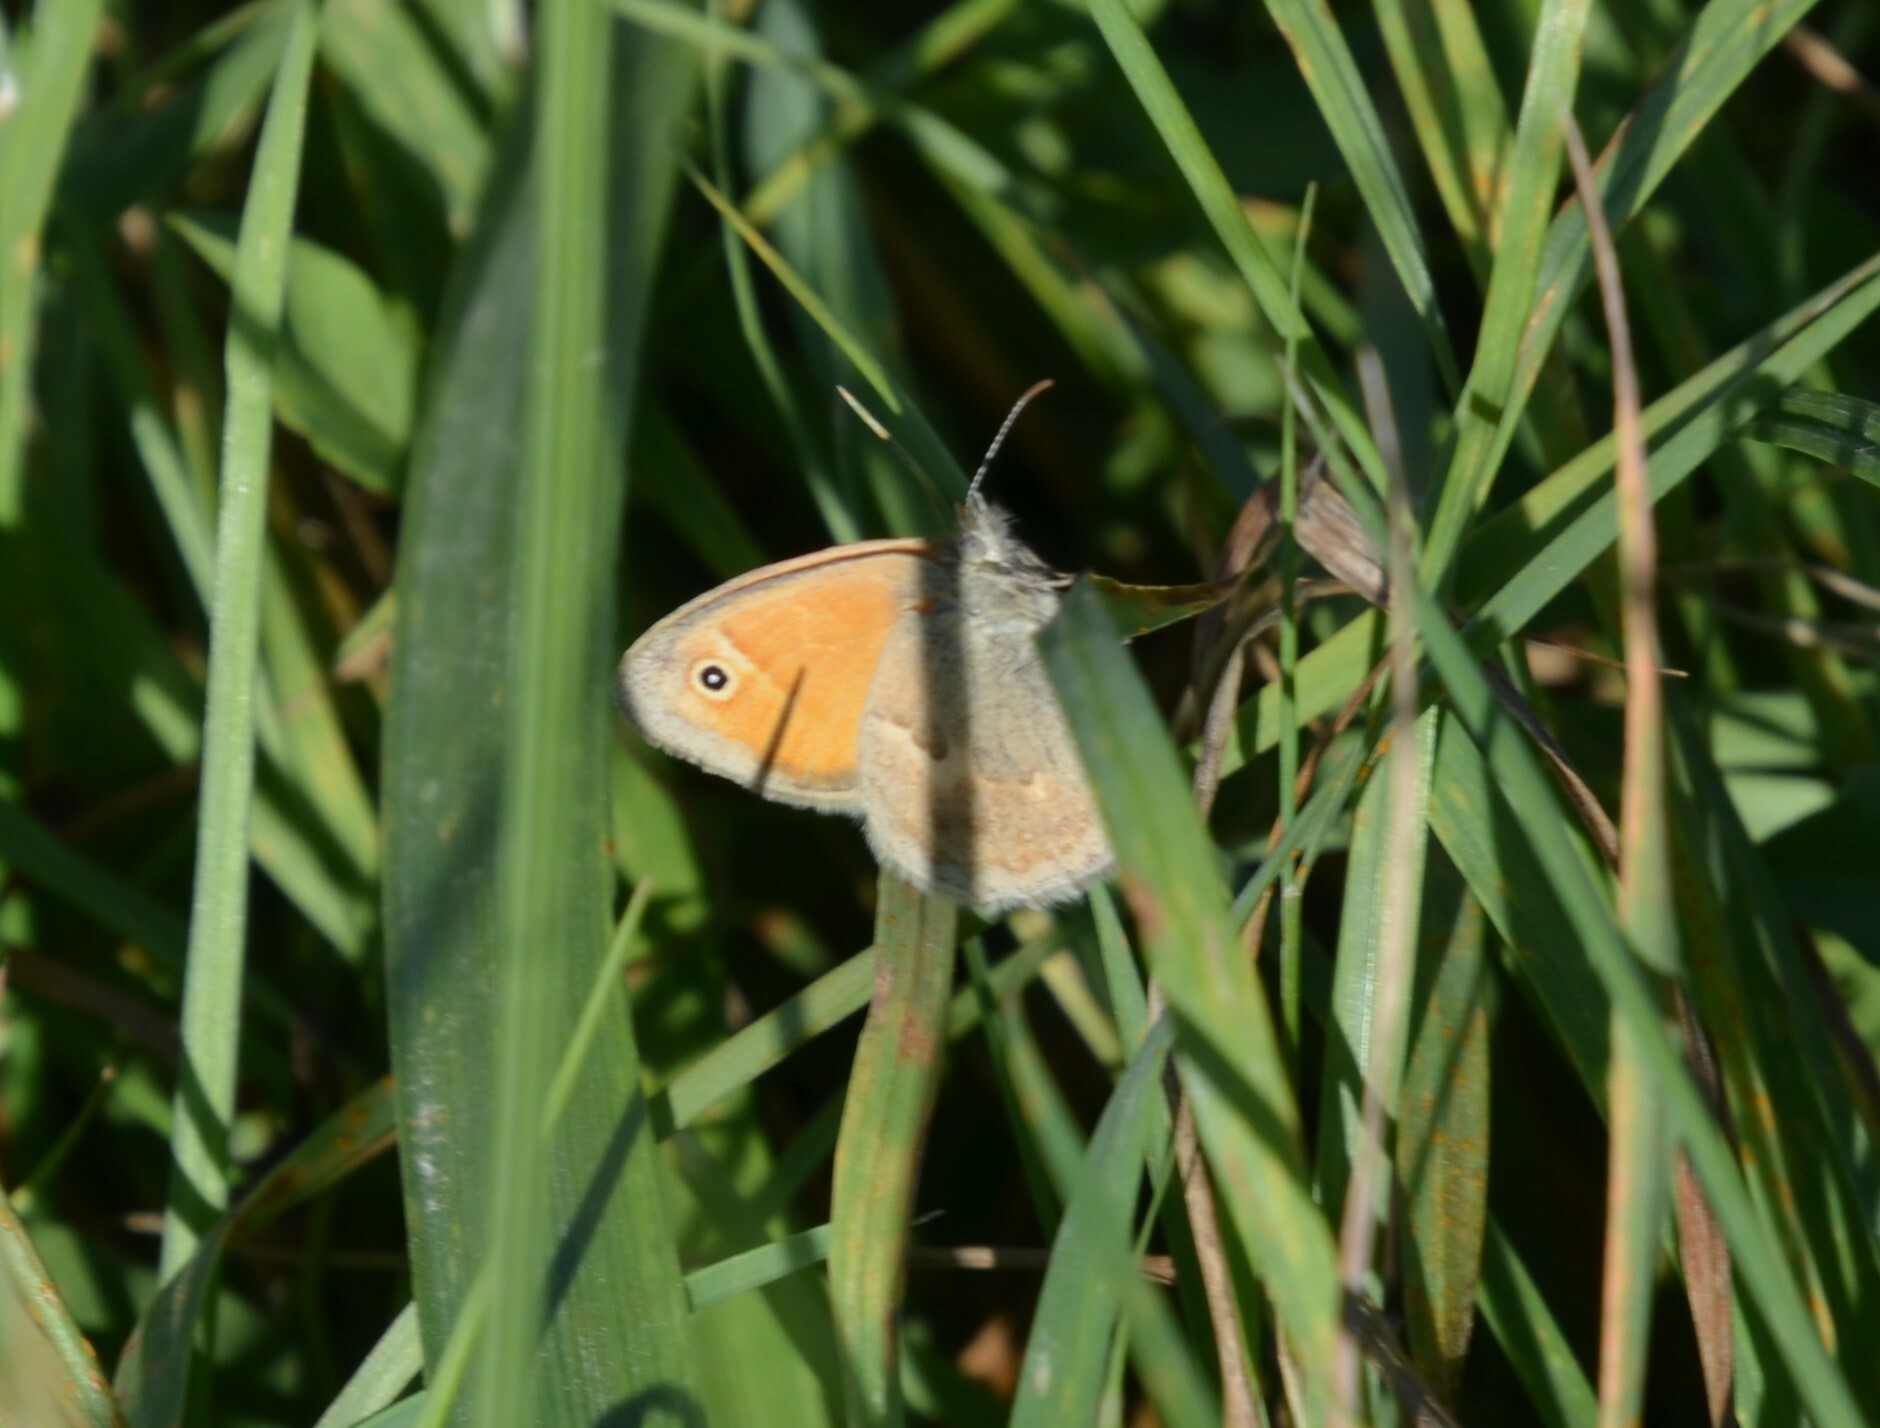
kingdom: Animalia
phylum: Arthropoda
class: Insecta
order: Lepidoptera
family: Nymphalidae
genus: Coenonympha
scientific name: Coenonympha pamphilus
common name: Small heath
